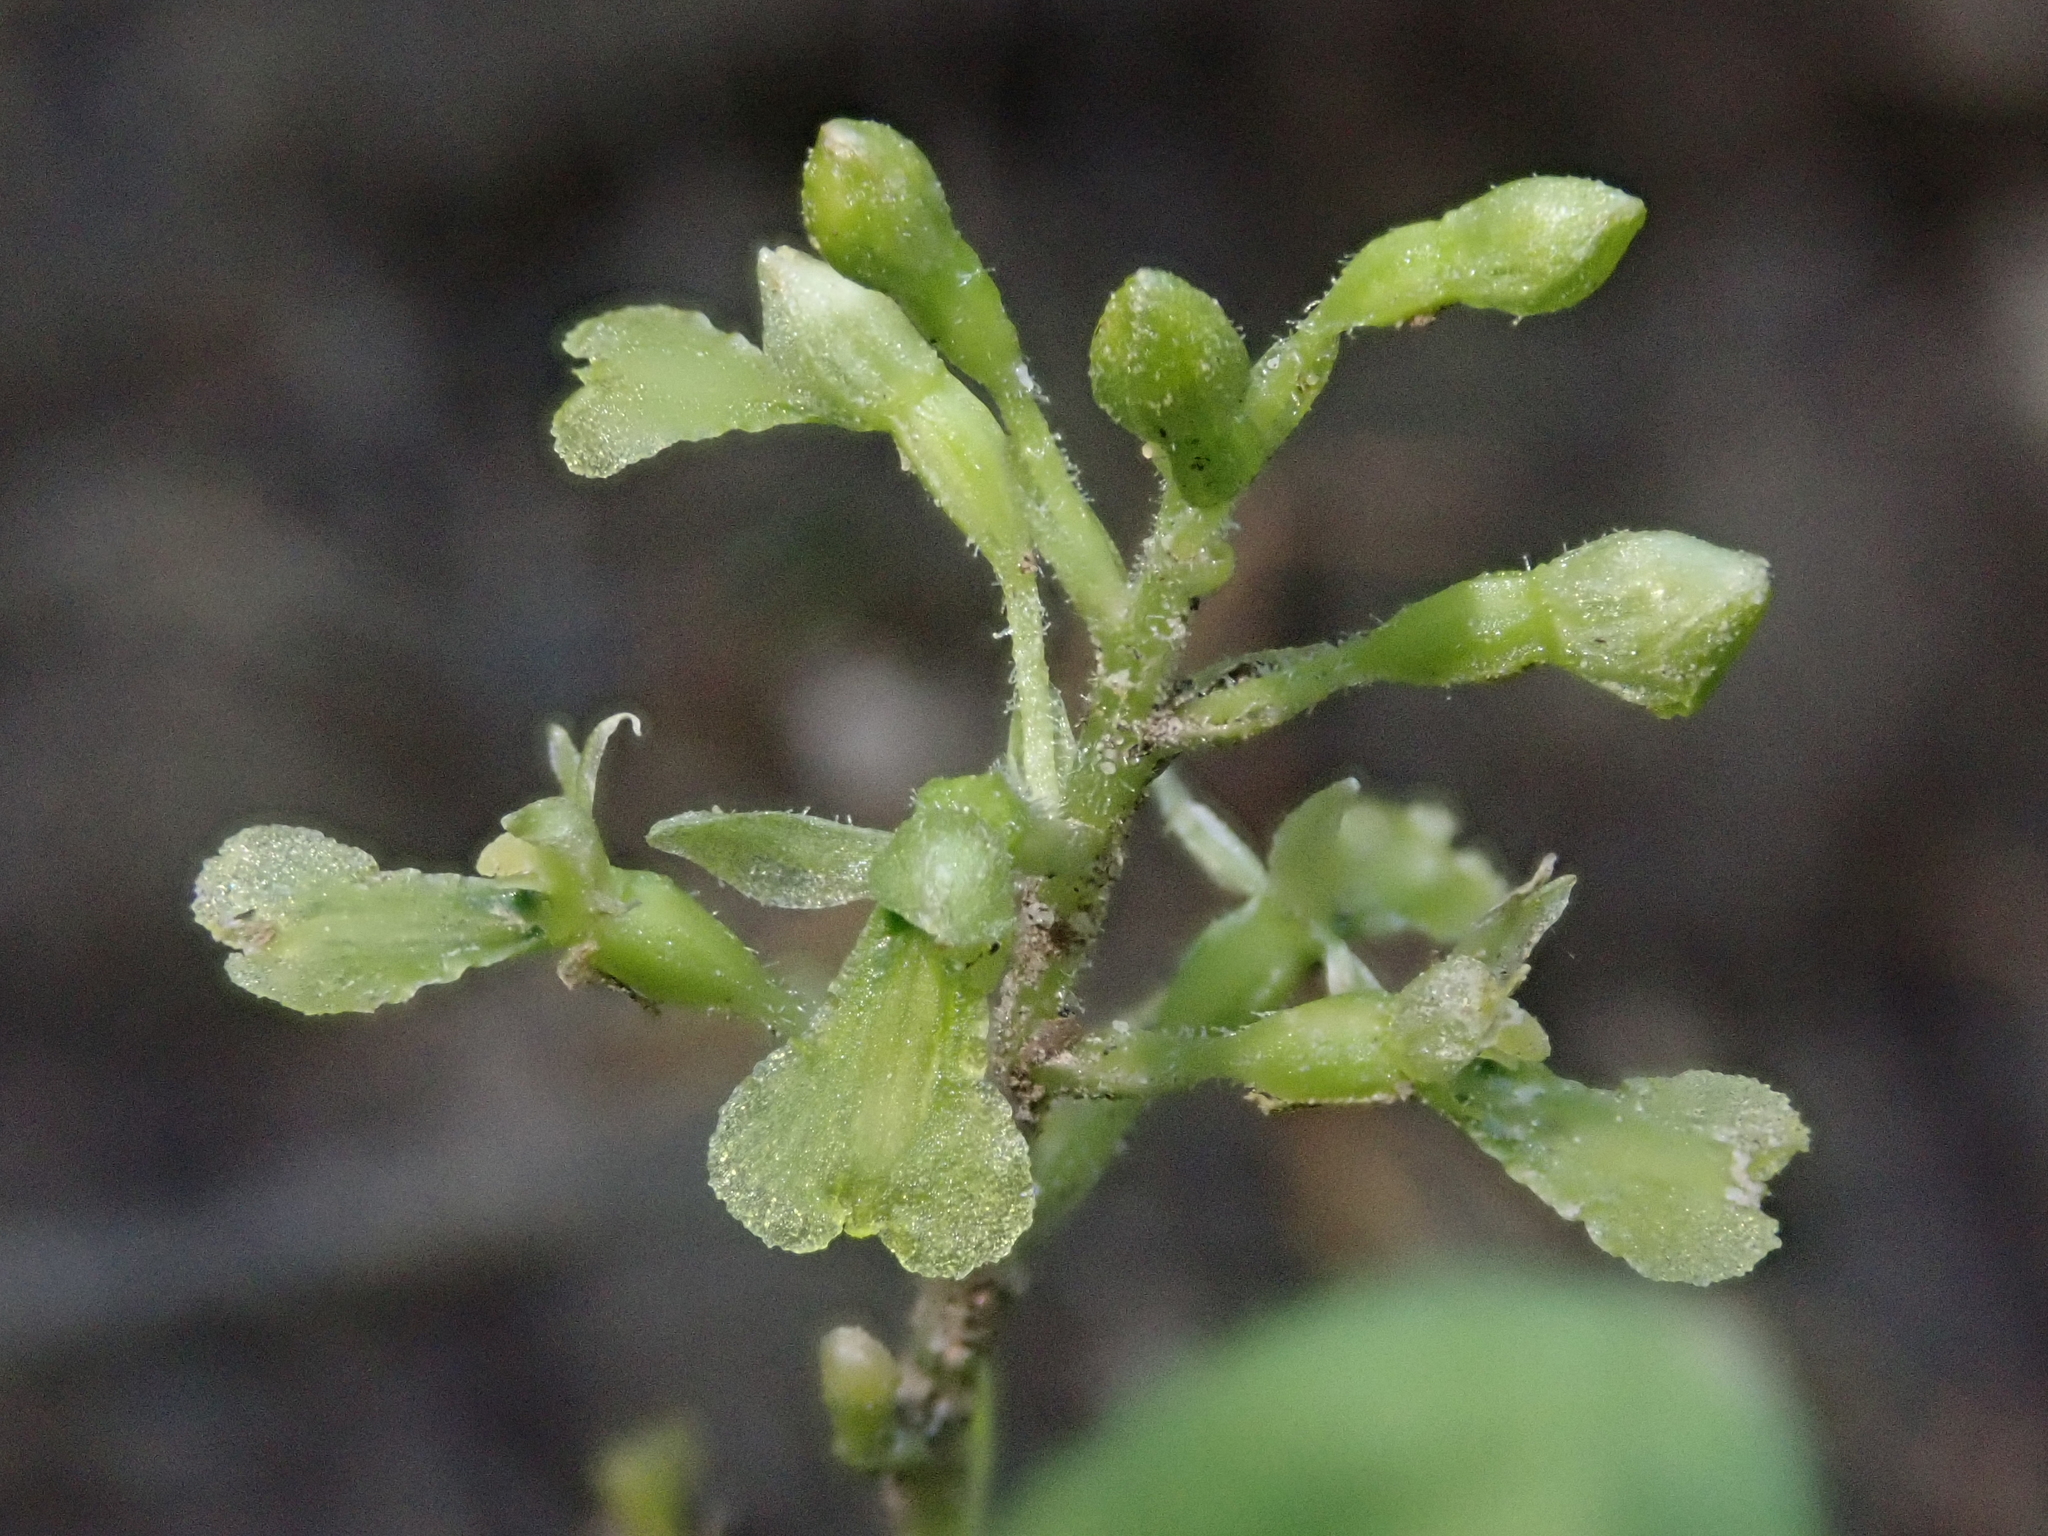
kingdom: Plantae
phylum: Tracheophyta
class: Liliopsida
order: Asparagales
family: Orchidaceae
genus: Neottia
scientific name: Neottia banksiana
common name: Northwestern twayblade
